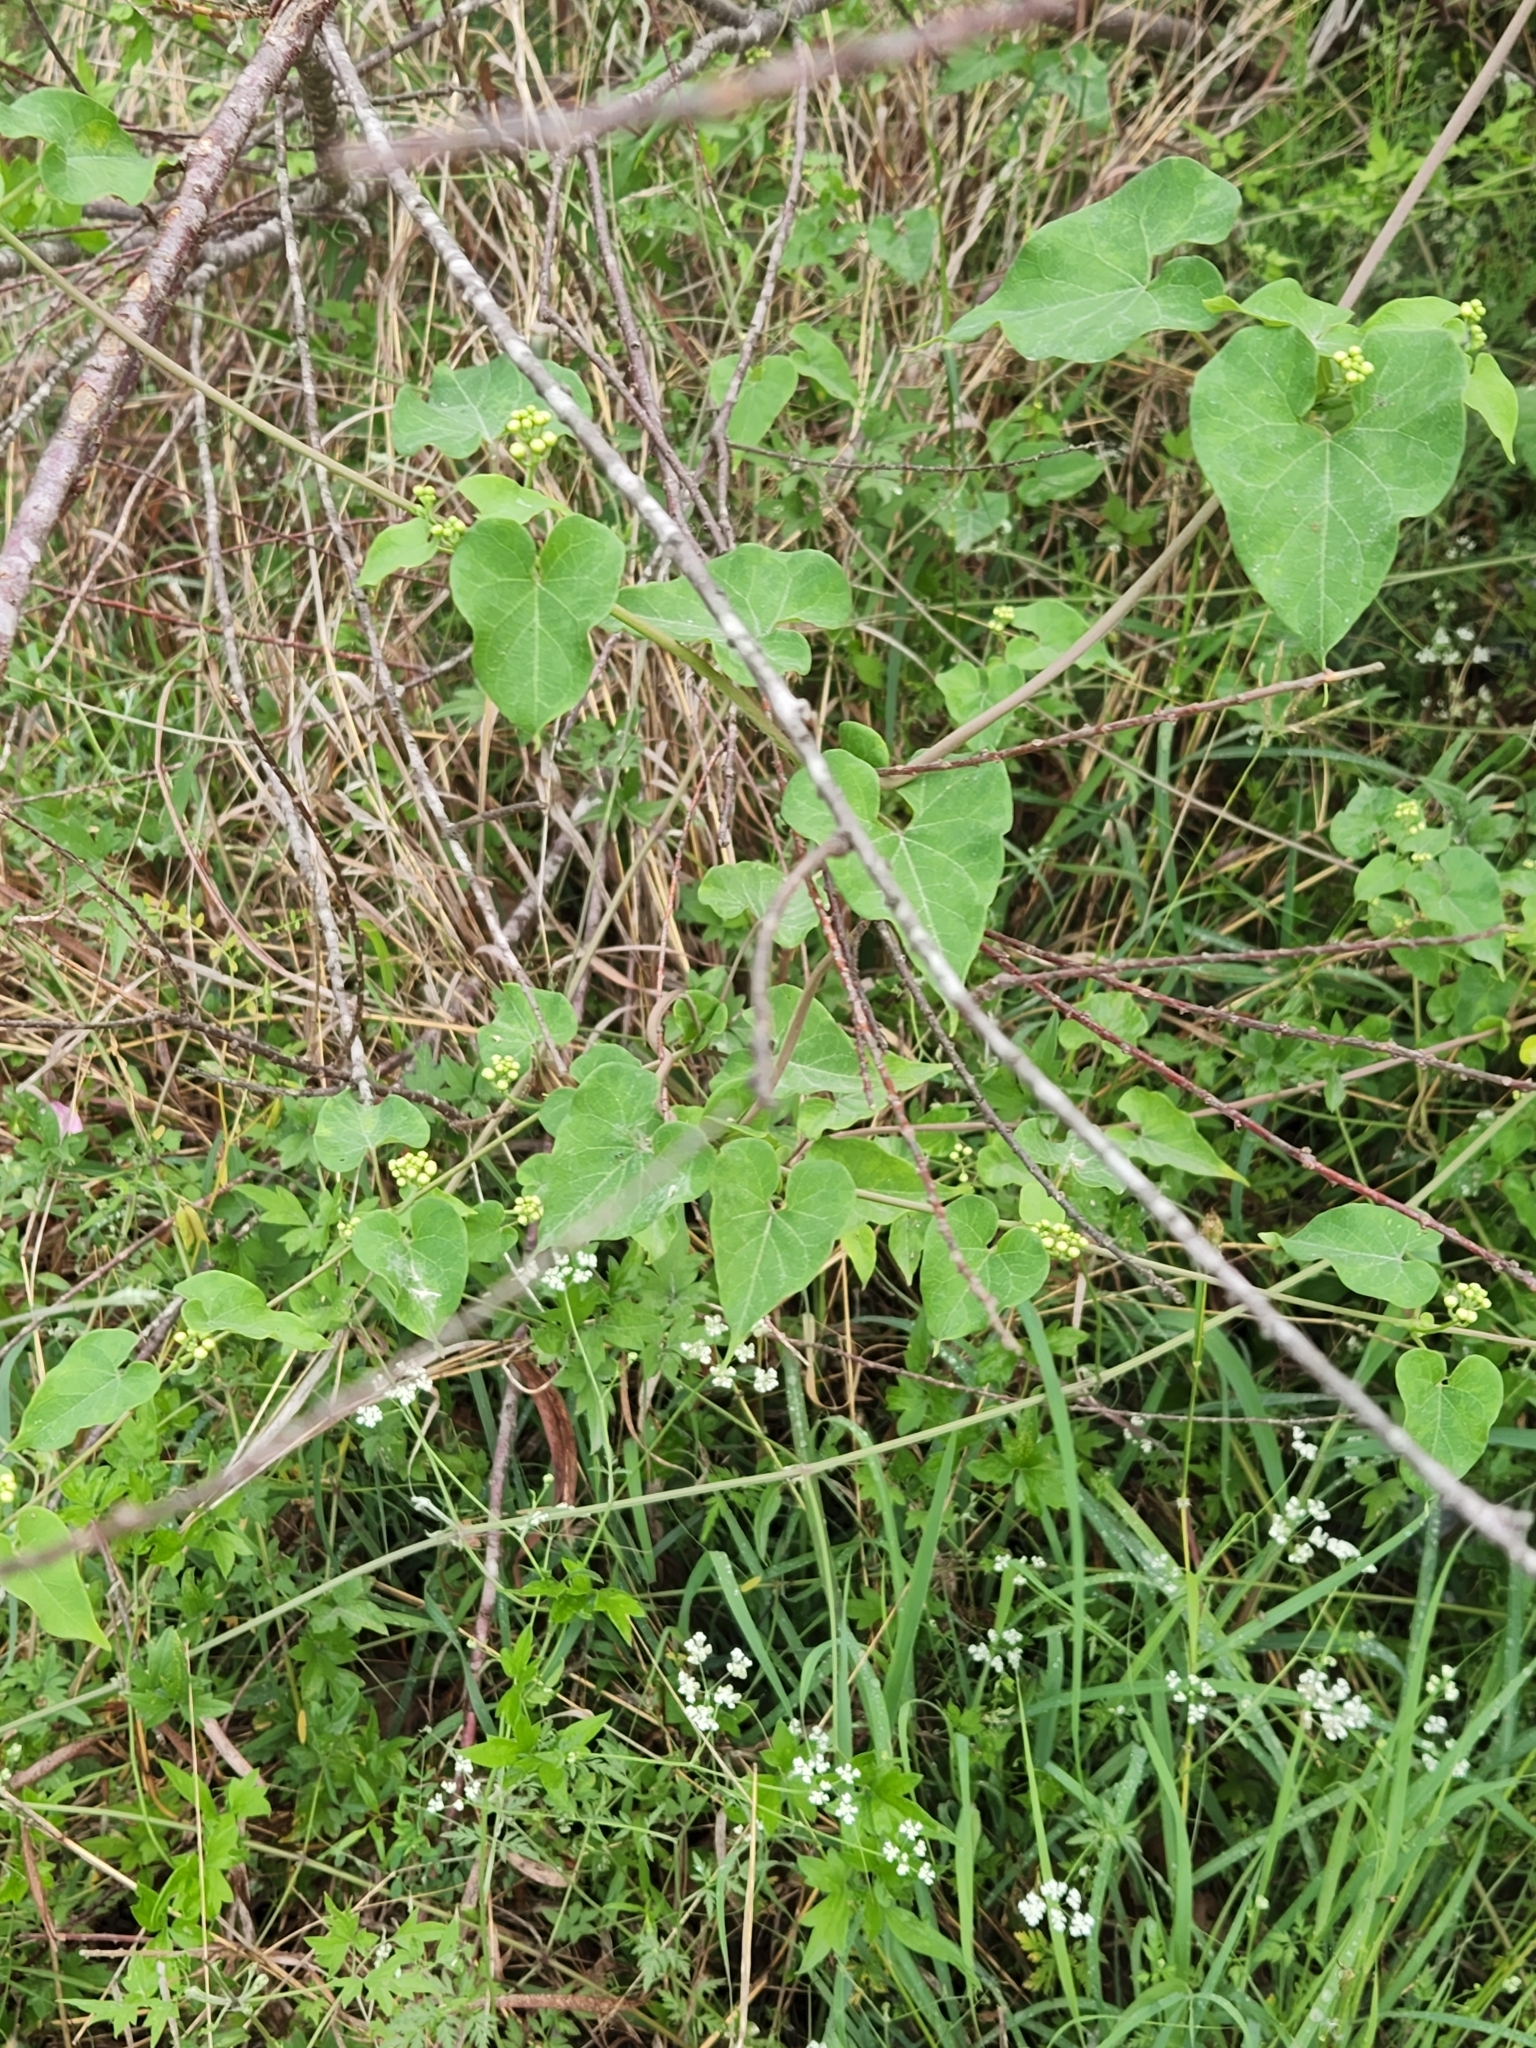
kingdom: Plantae
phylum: Tracheophyta
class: Magnoliopsida
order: Gentianales
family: Apocynaceae
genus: Cynanchum
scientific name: Cynanchum racemosum
